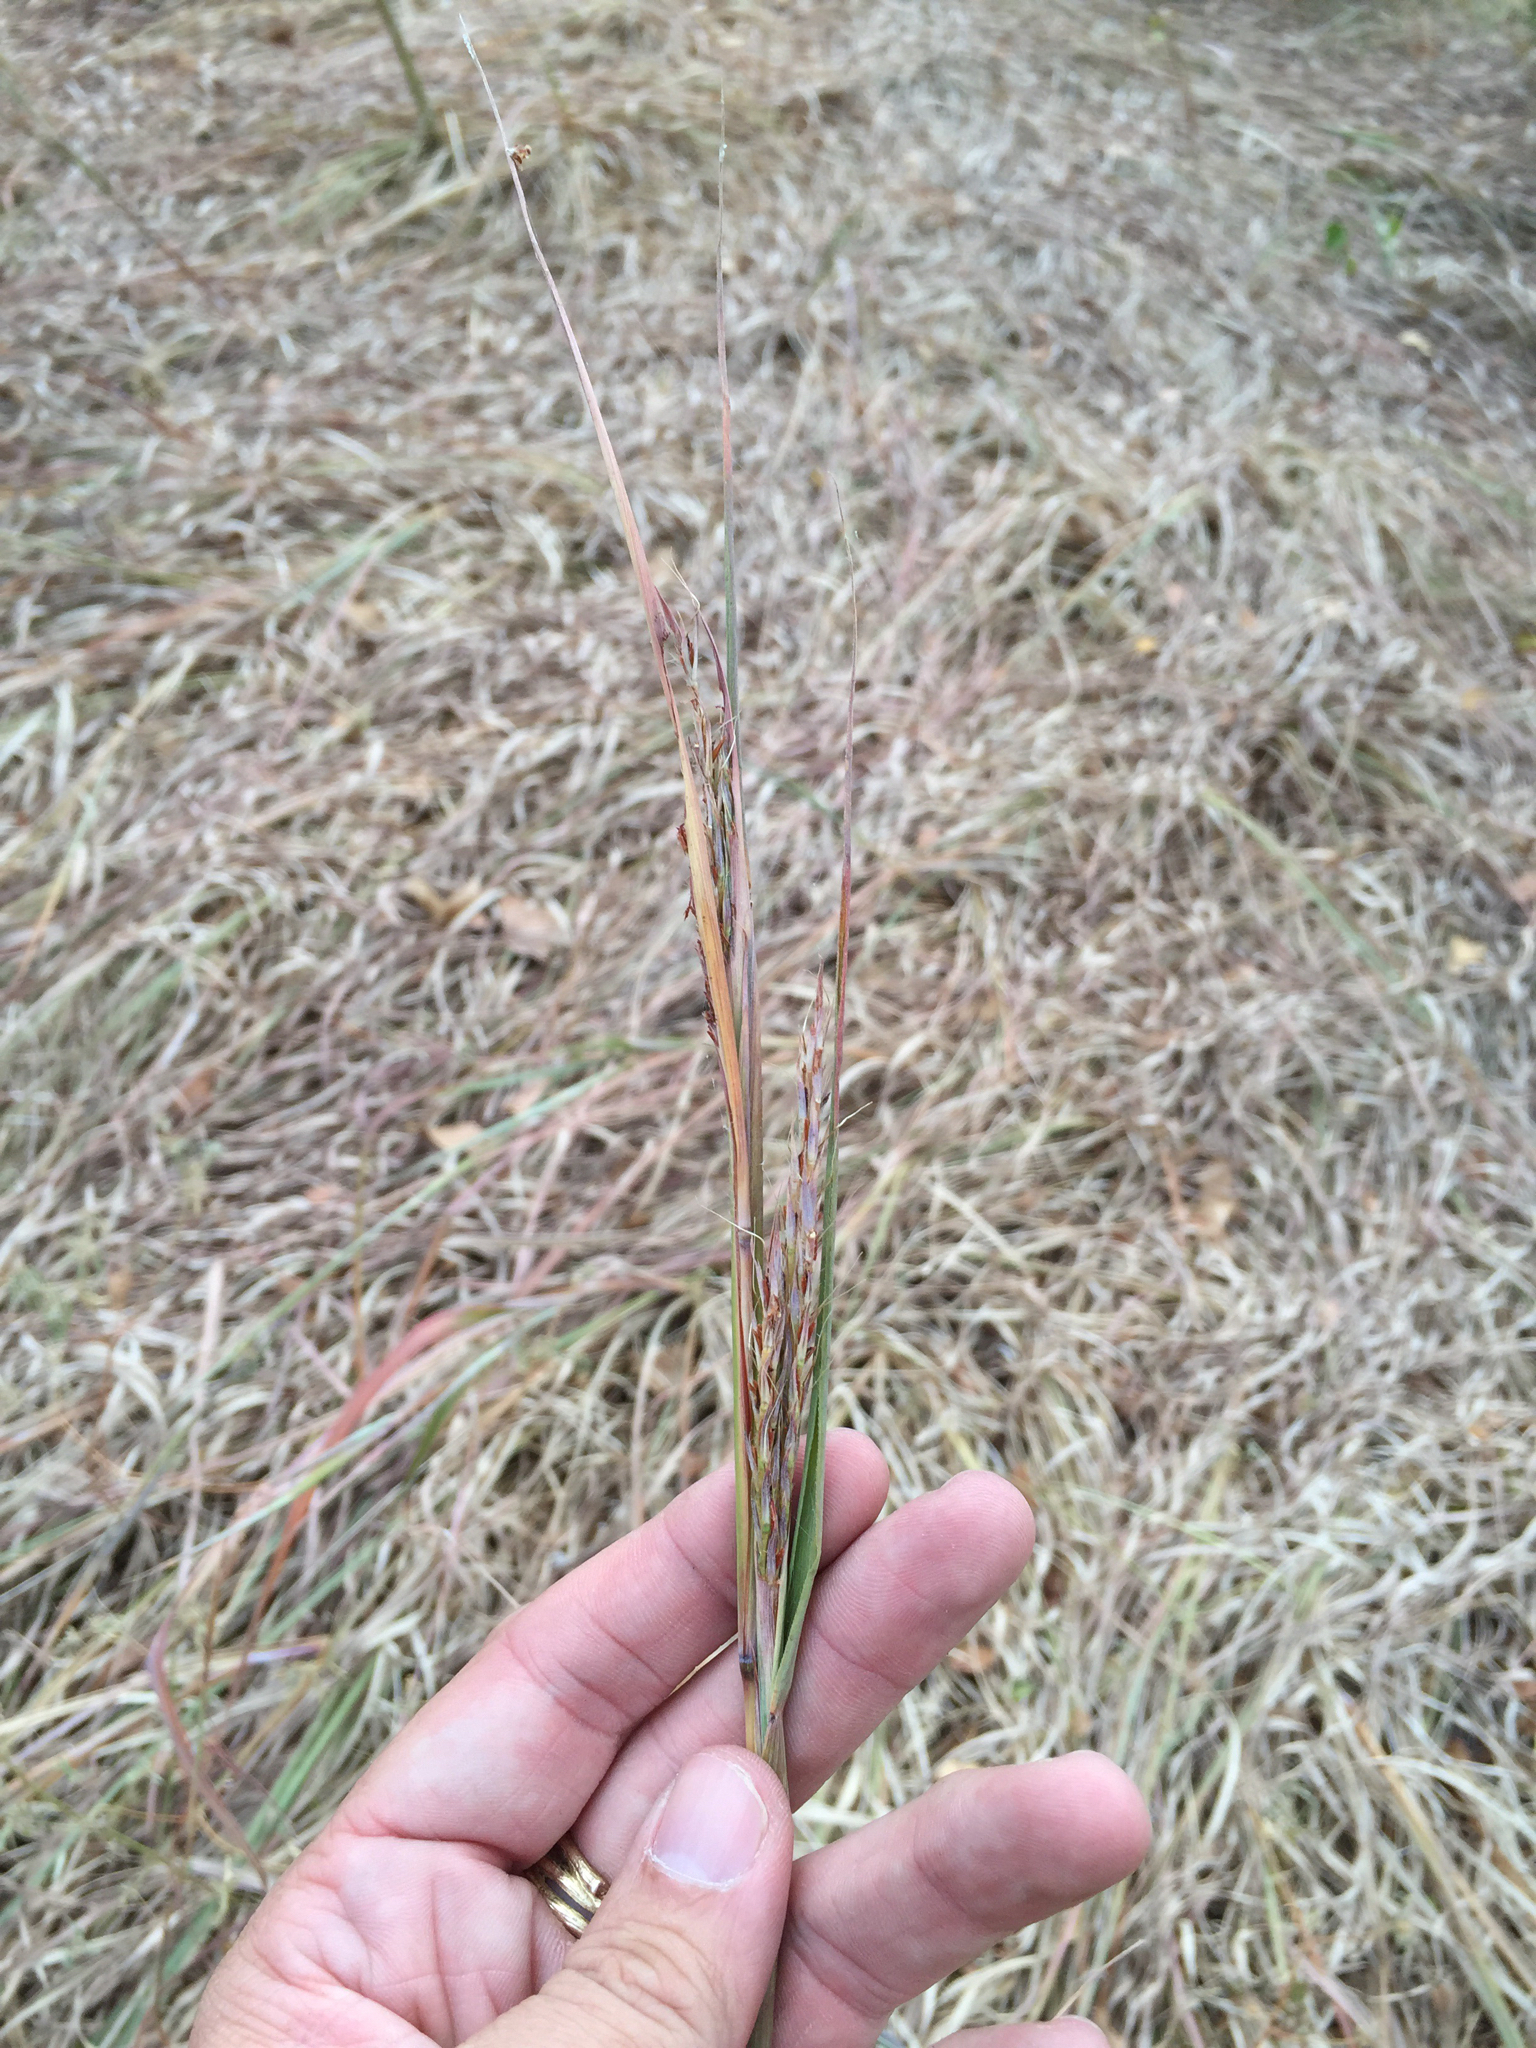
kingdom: Plantae
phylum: Tracheophyta
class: Liliopsida
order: Poales
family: Poaceae
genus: Andropogon
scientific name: Andropogon gerardi
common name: Big bluestem
